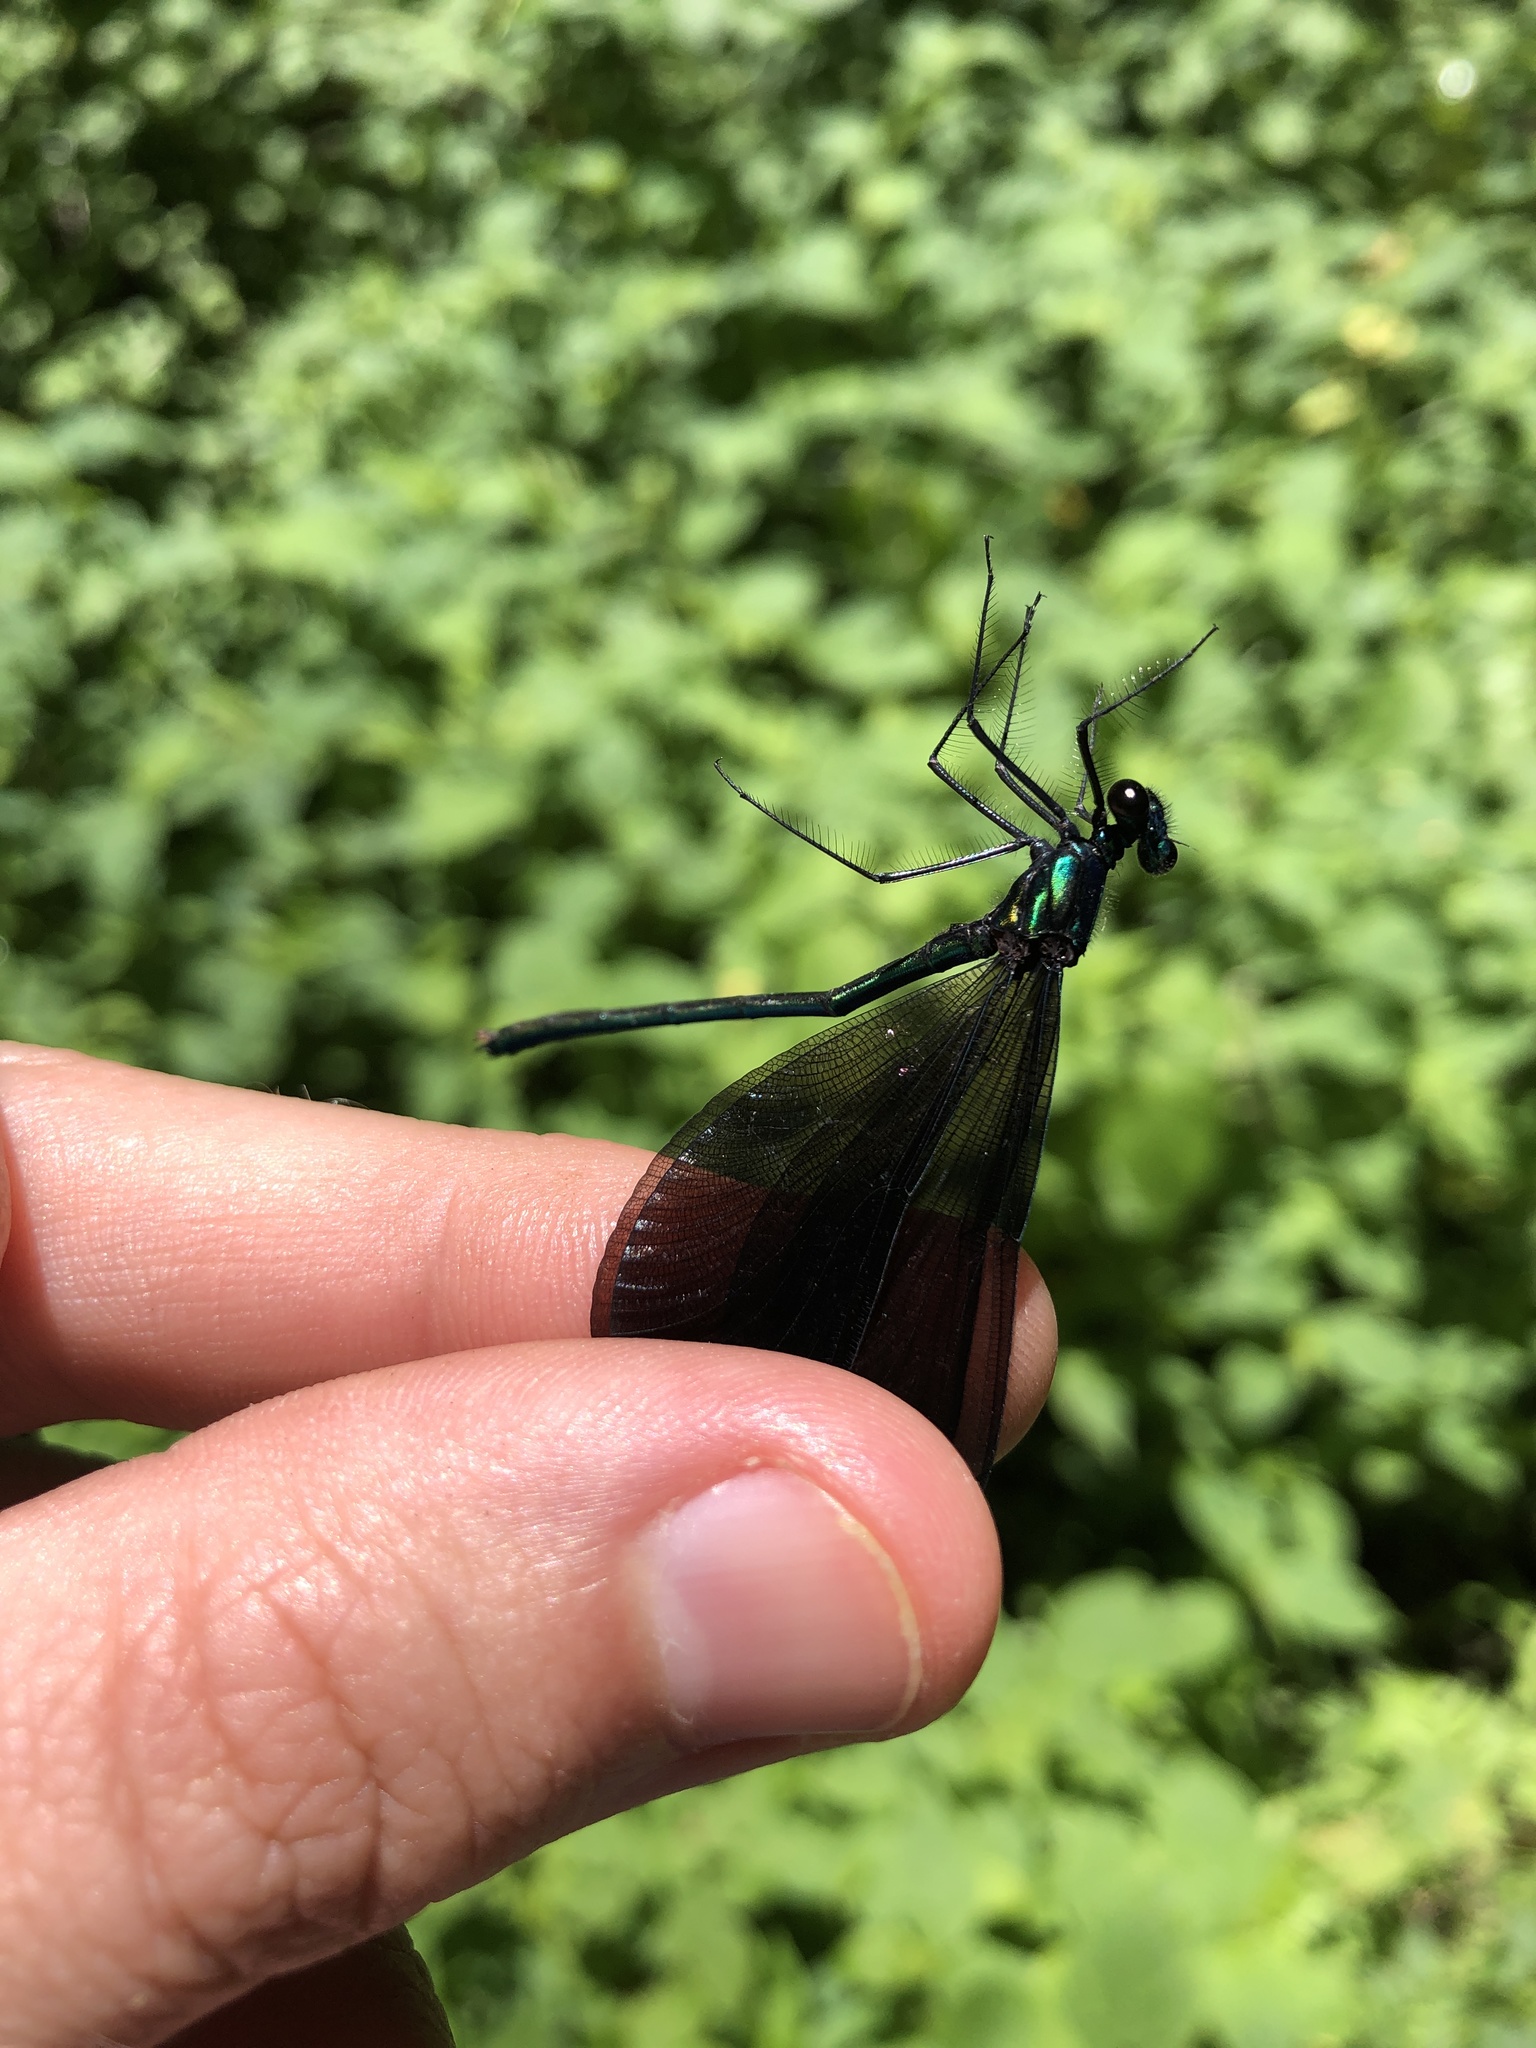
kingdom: Animalia
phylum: Arthropoda
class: Insecta
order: Odonata
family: Calopterygidae
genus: Calopteryx
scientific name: Calopteryx maculata
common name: Ebony jewelwing
